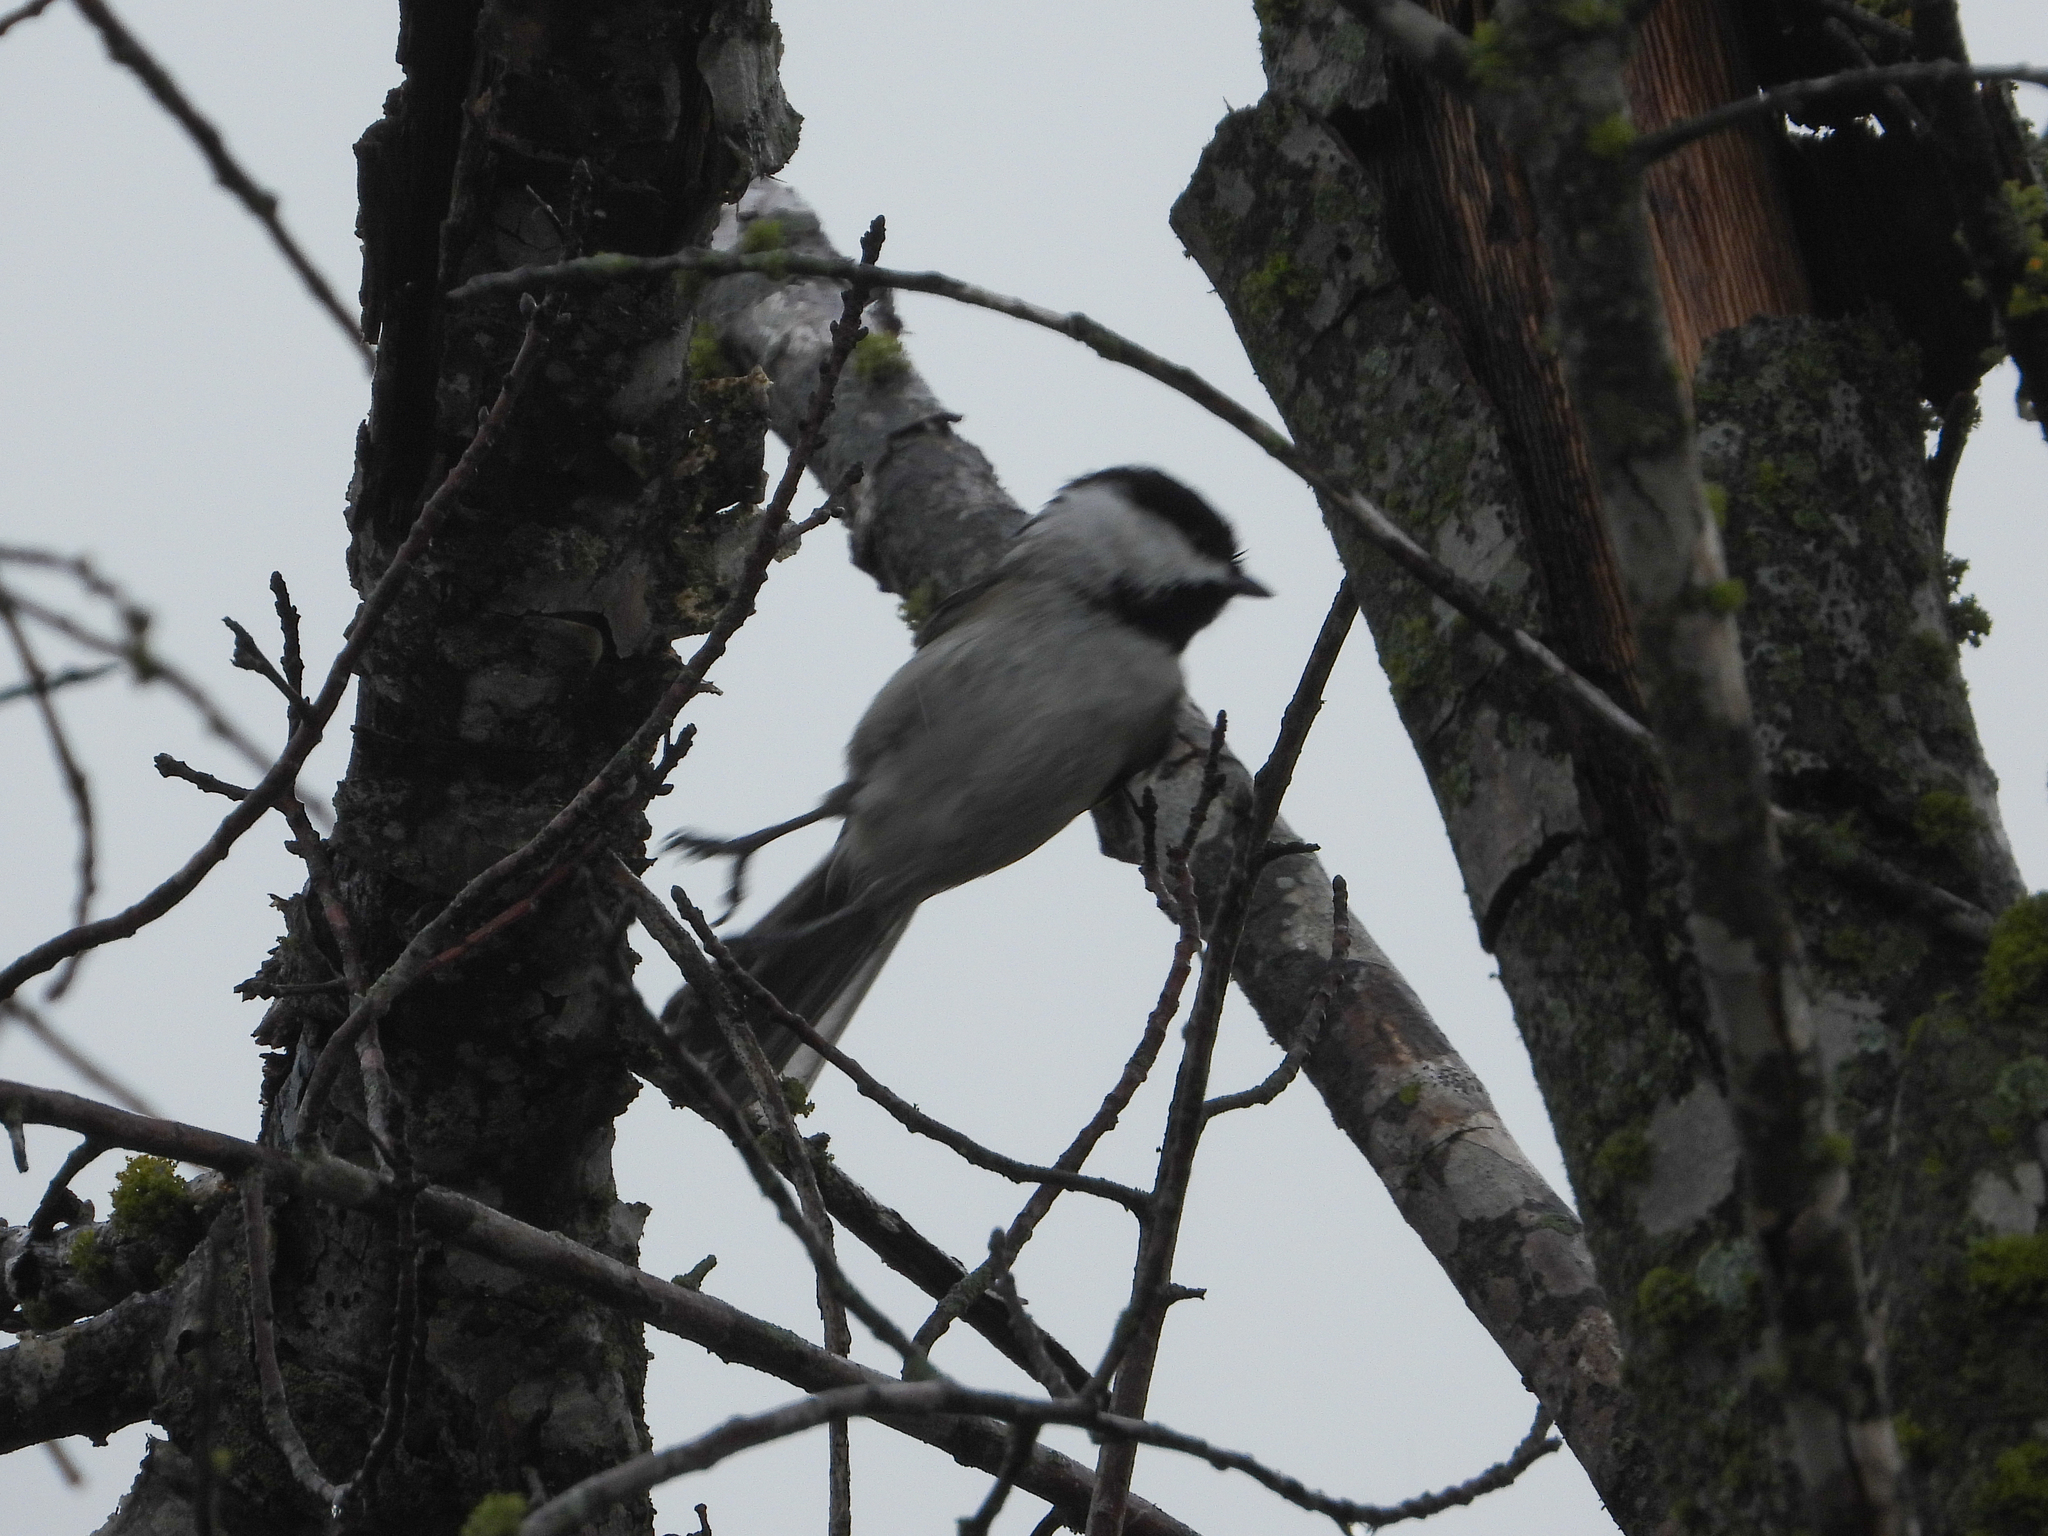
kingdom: Animalia
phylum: Chordata
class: Aves
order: Passeriformes
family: Paridae
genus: Poecile
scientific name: Poecile carolinensis
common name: Carolina chickadee
